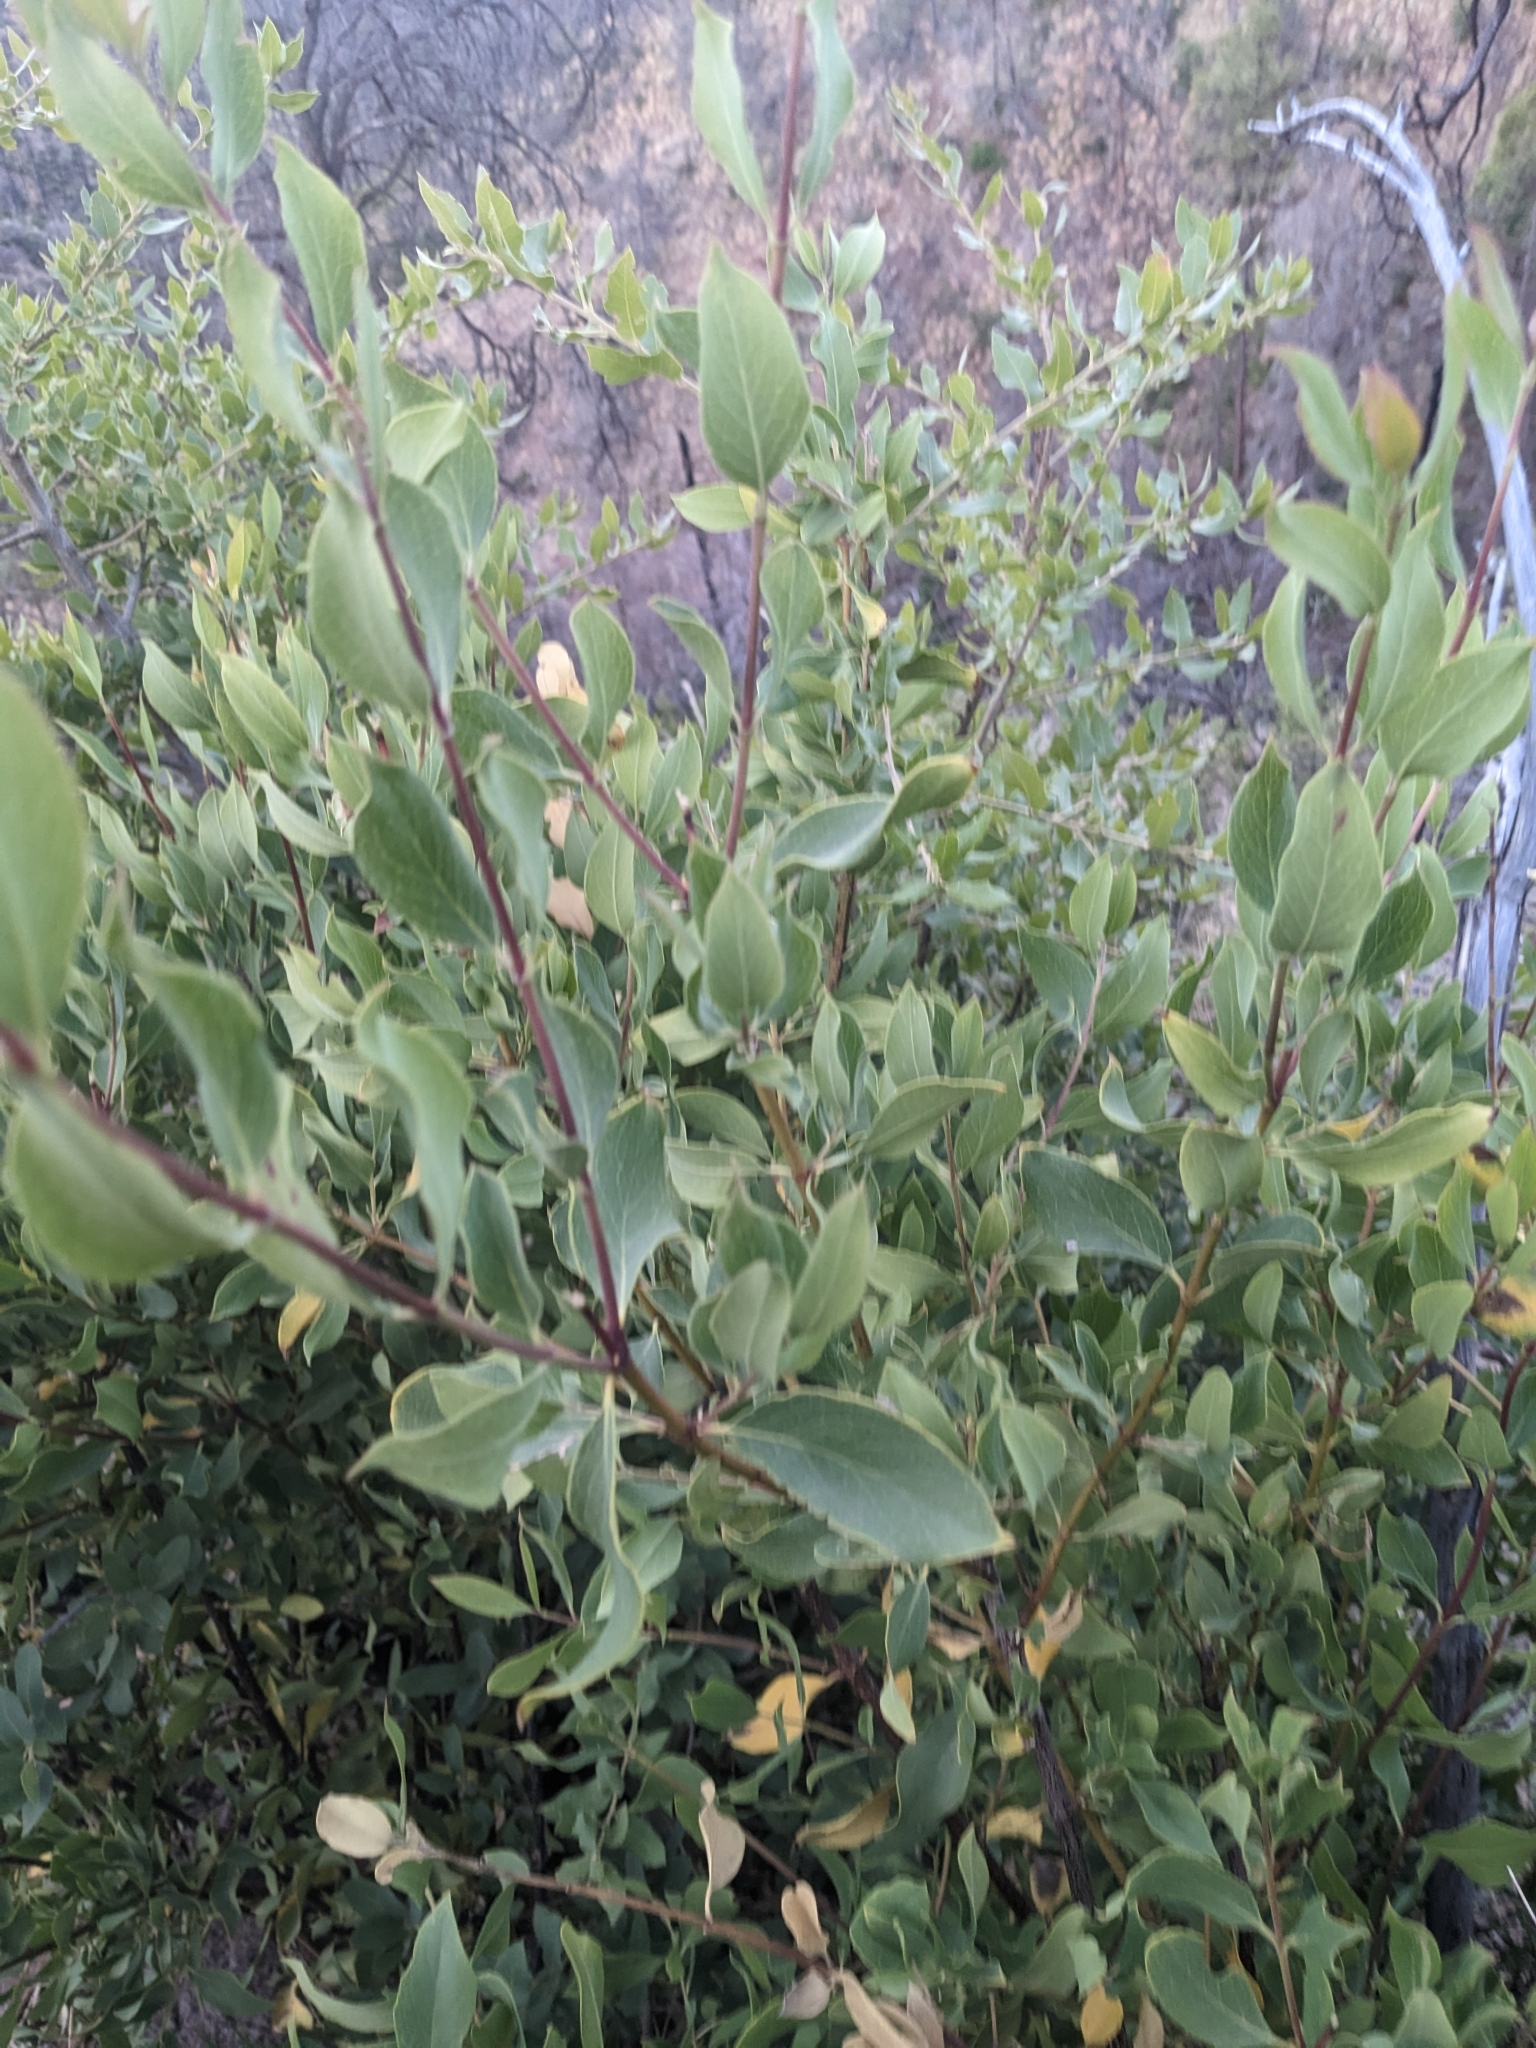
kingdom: Plantae
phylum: Tracheophyta
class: Magnoliopsida
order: Garryales
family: Garryaceae
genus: Garrya
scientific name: Garrya wrightii
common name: Wright's silktassel
